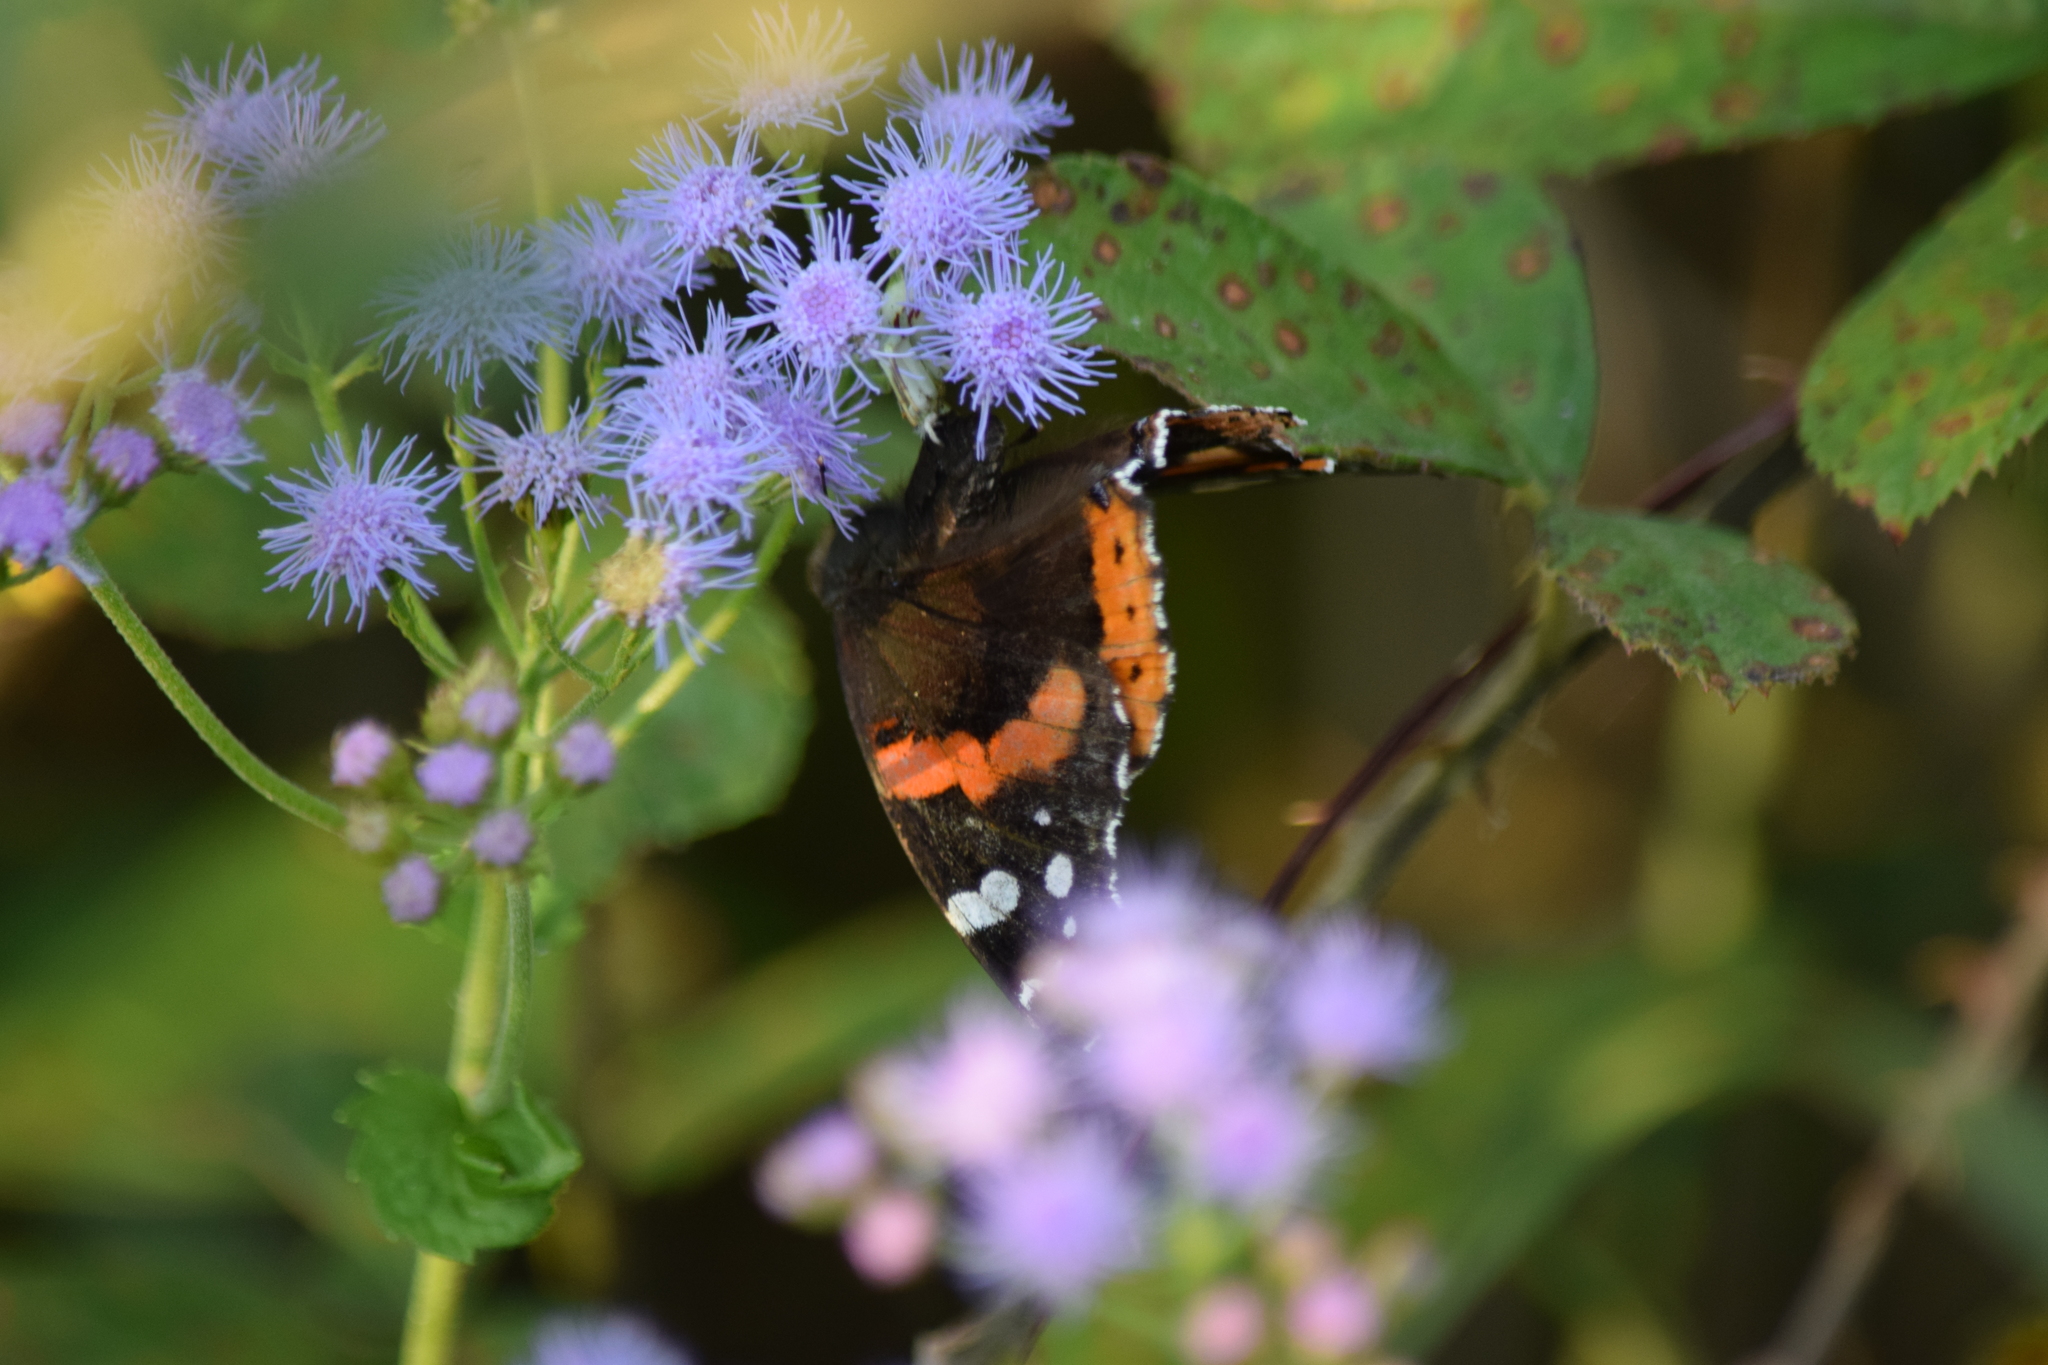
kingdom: Animalia
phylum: Arthropoda
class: Insecta
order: Lepidoptera
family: Nymphalidae
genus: Vanessa
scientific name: Vanessa atalanta
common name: Red admiral
